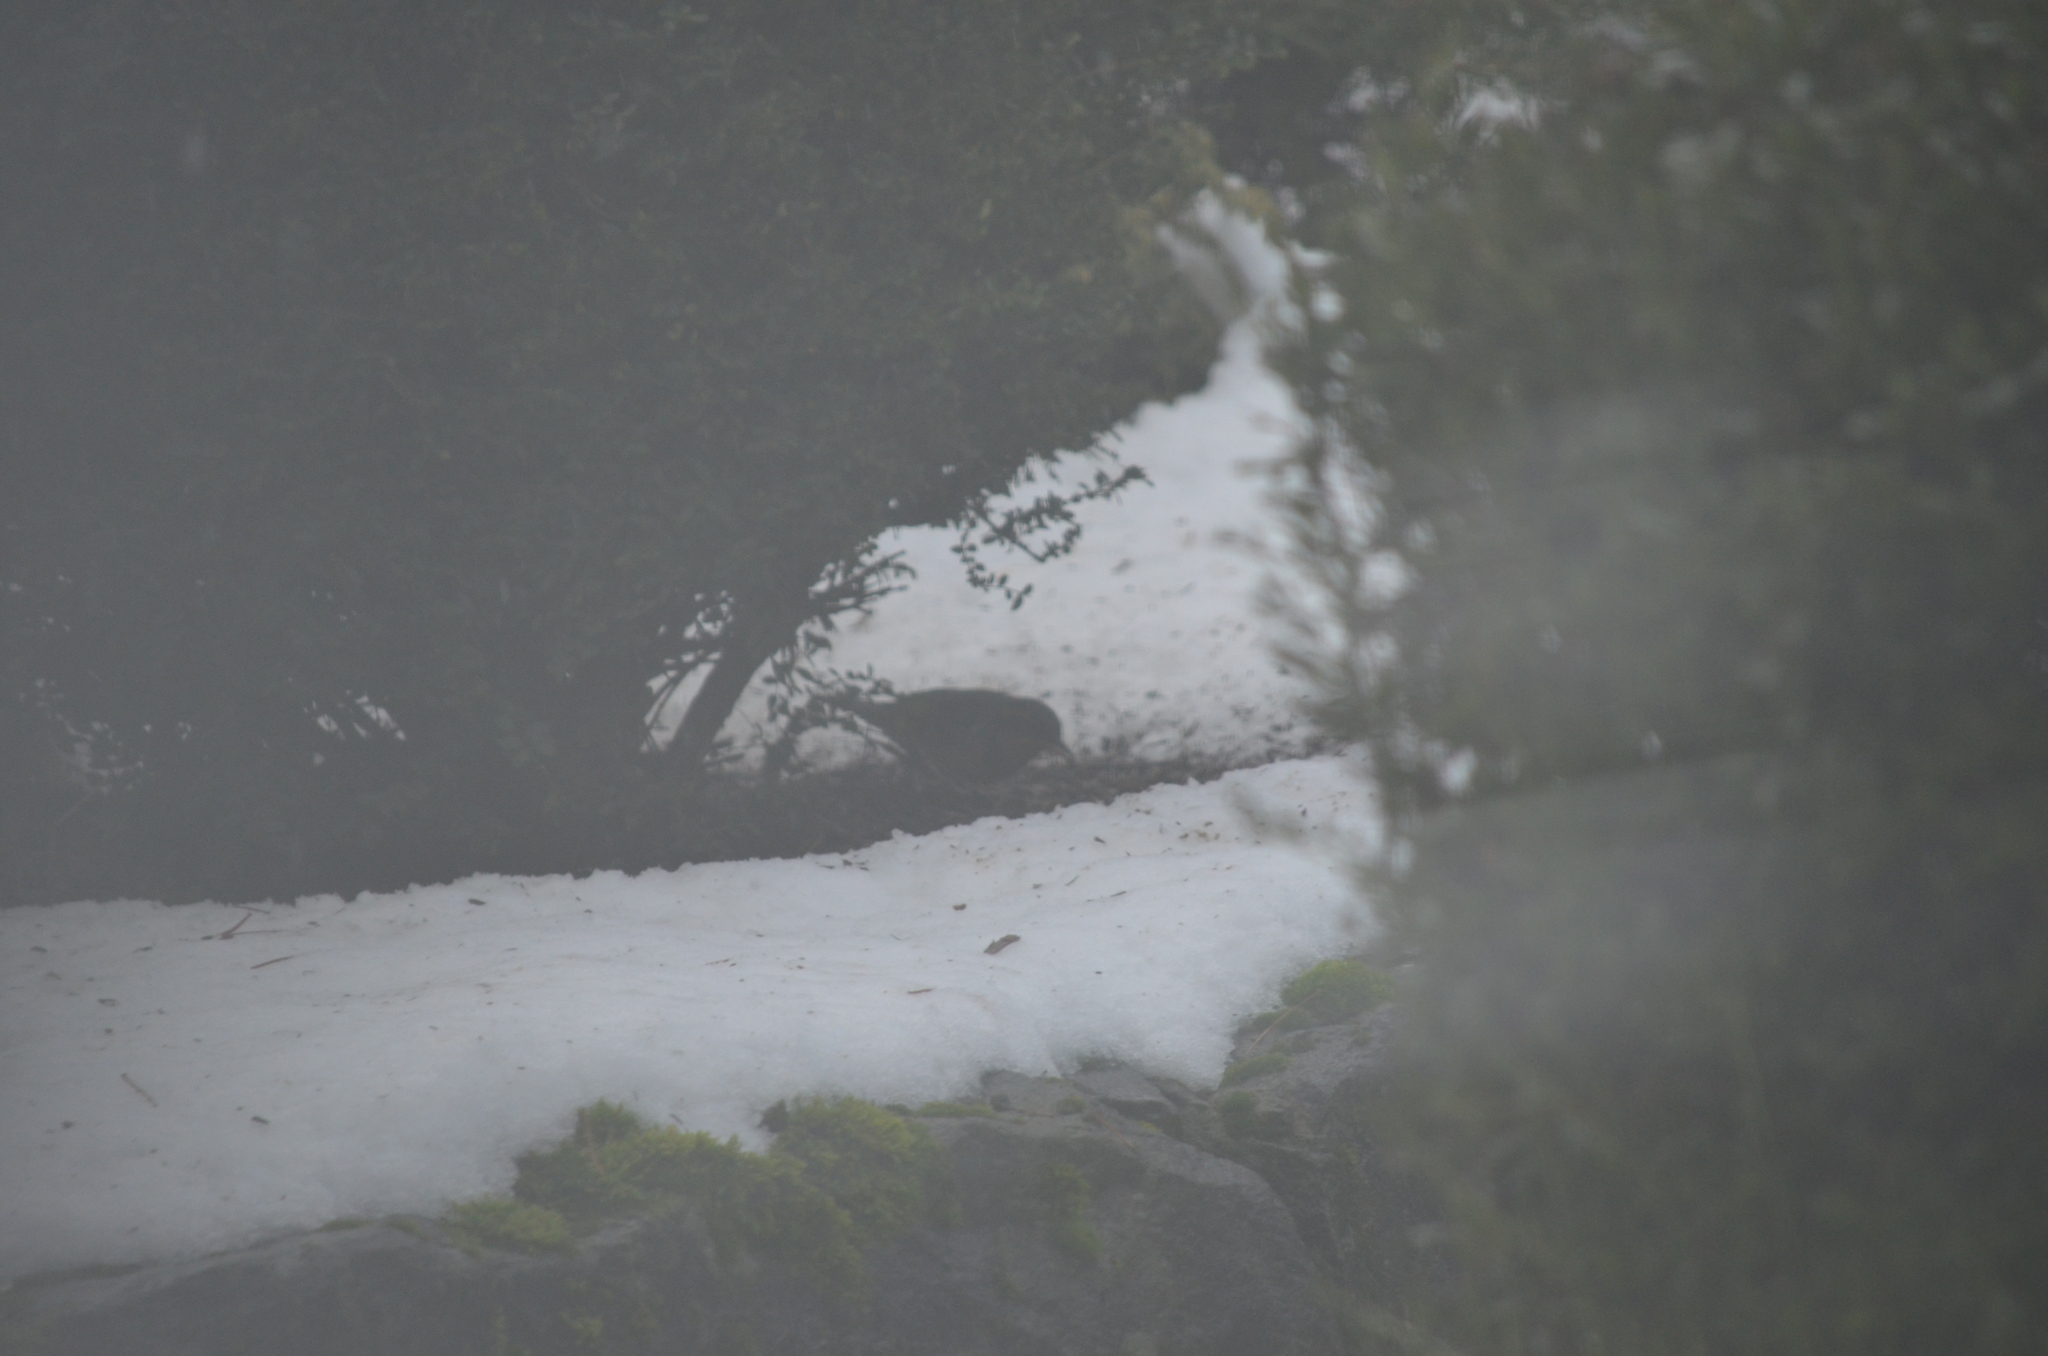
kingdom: Animalia
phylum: Chordata
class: Aves
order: Passeriformes
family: Turdidae
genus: Ixoreus
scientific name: Ixoreus naevius
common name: Varied thrush
